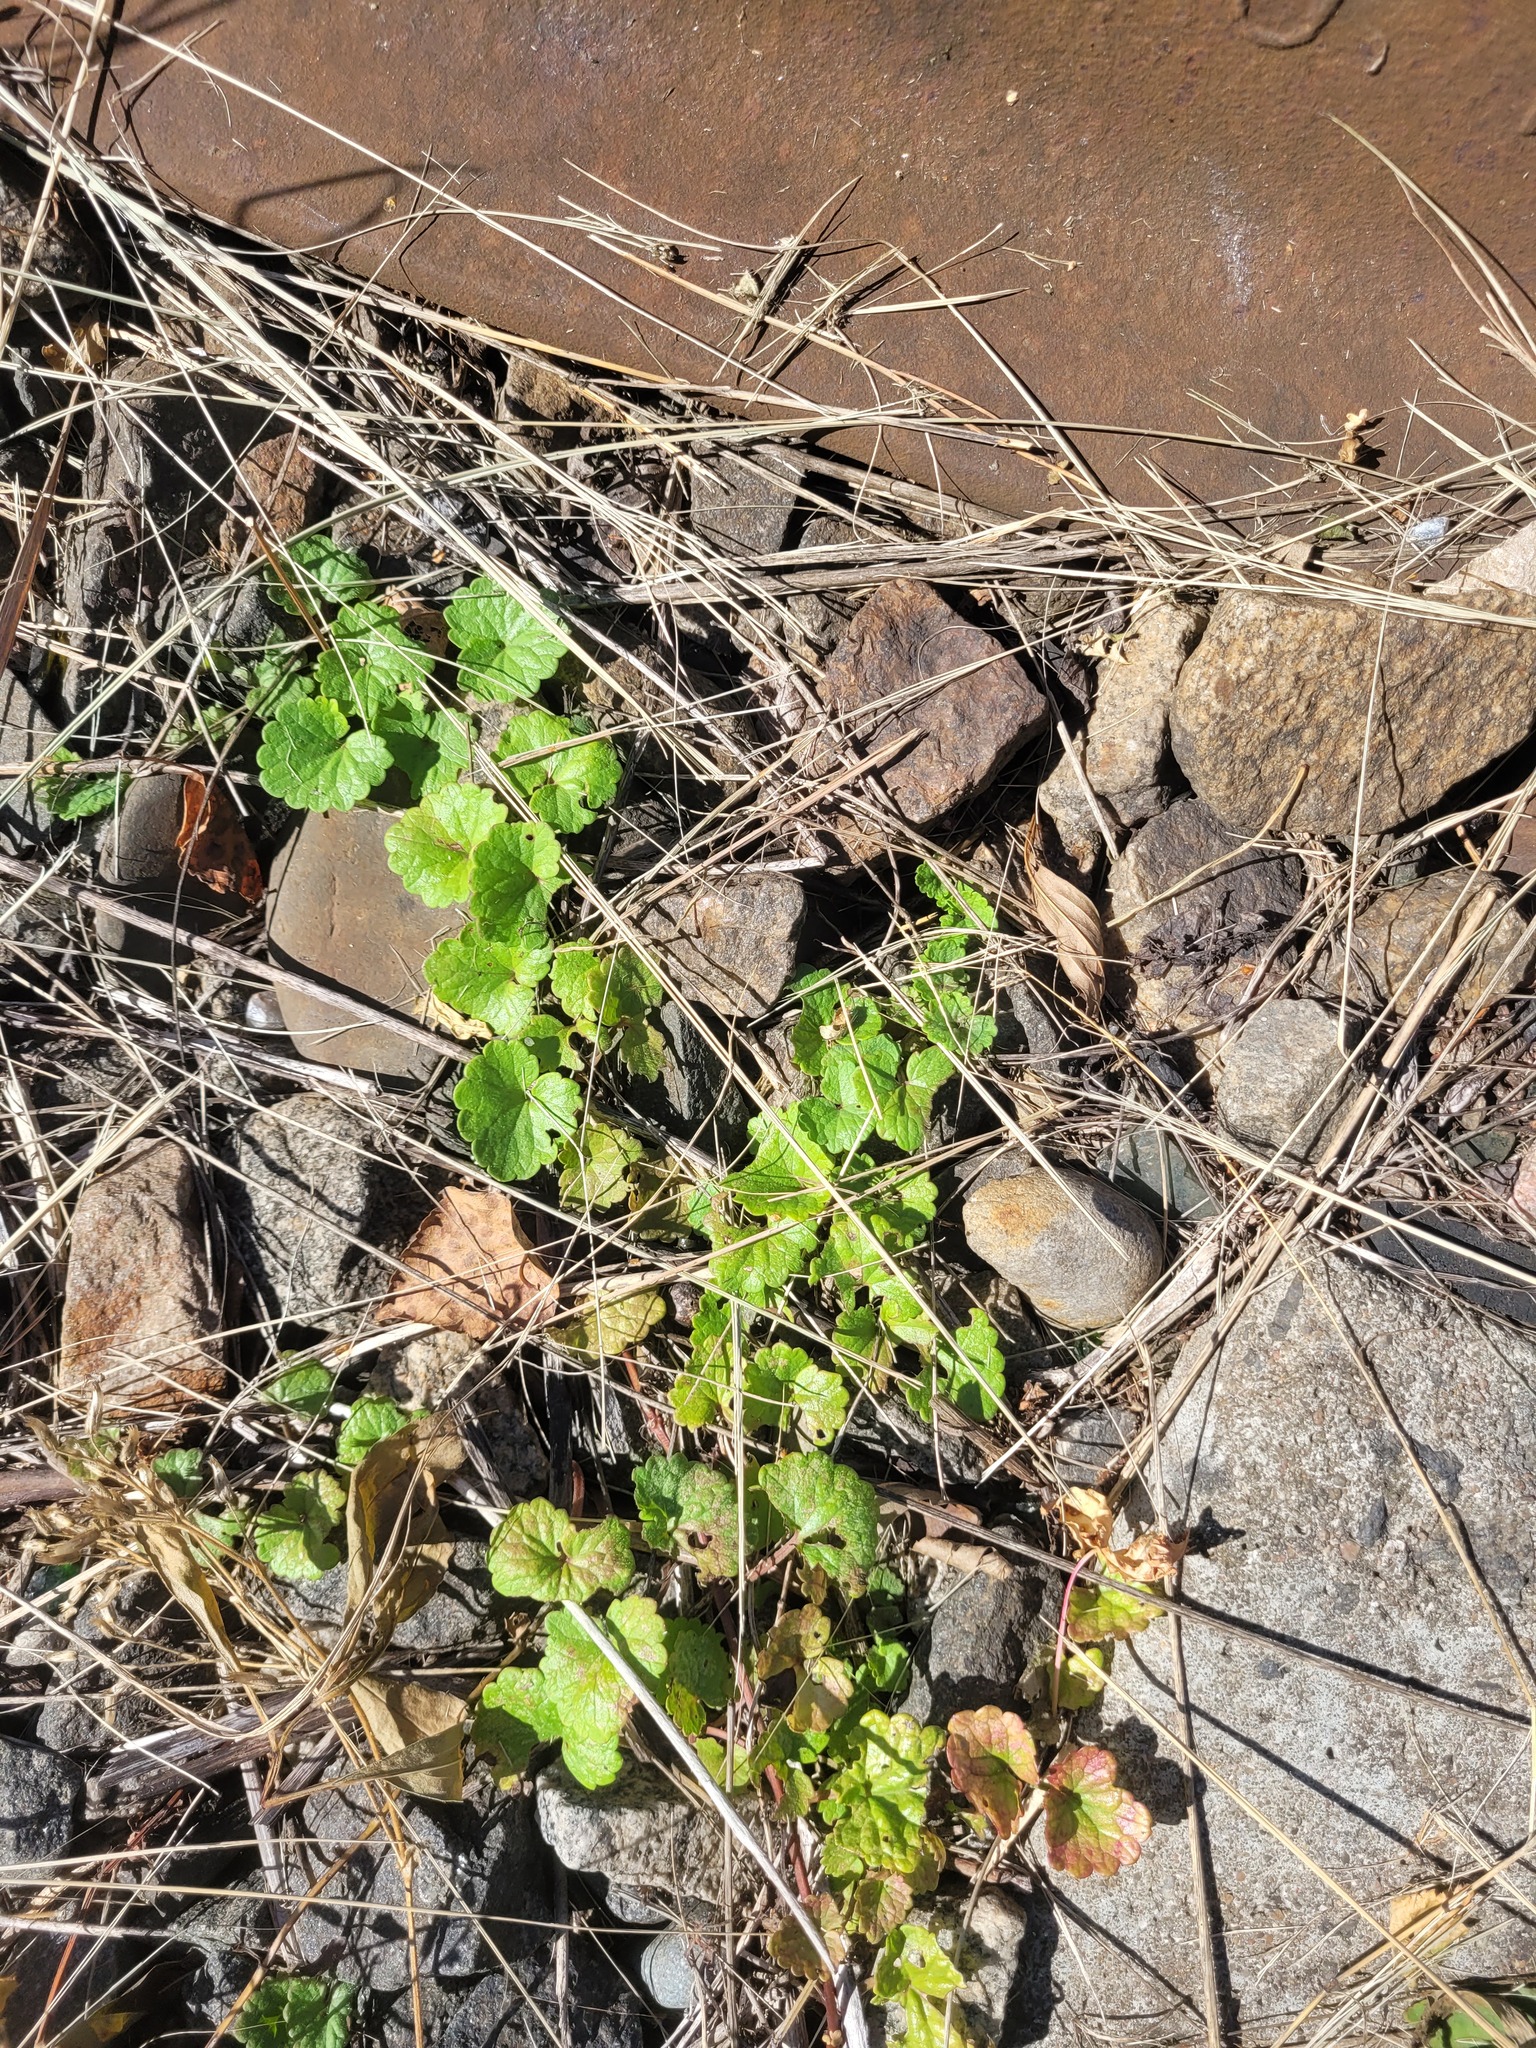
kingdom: Plantae
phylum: Tracheophyta
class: Magnoliopsida
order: Lamiales
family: Lamiaceae
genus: Glechoma
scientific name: Glechoma hederacea
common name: Ground ivy
